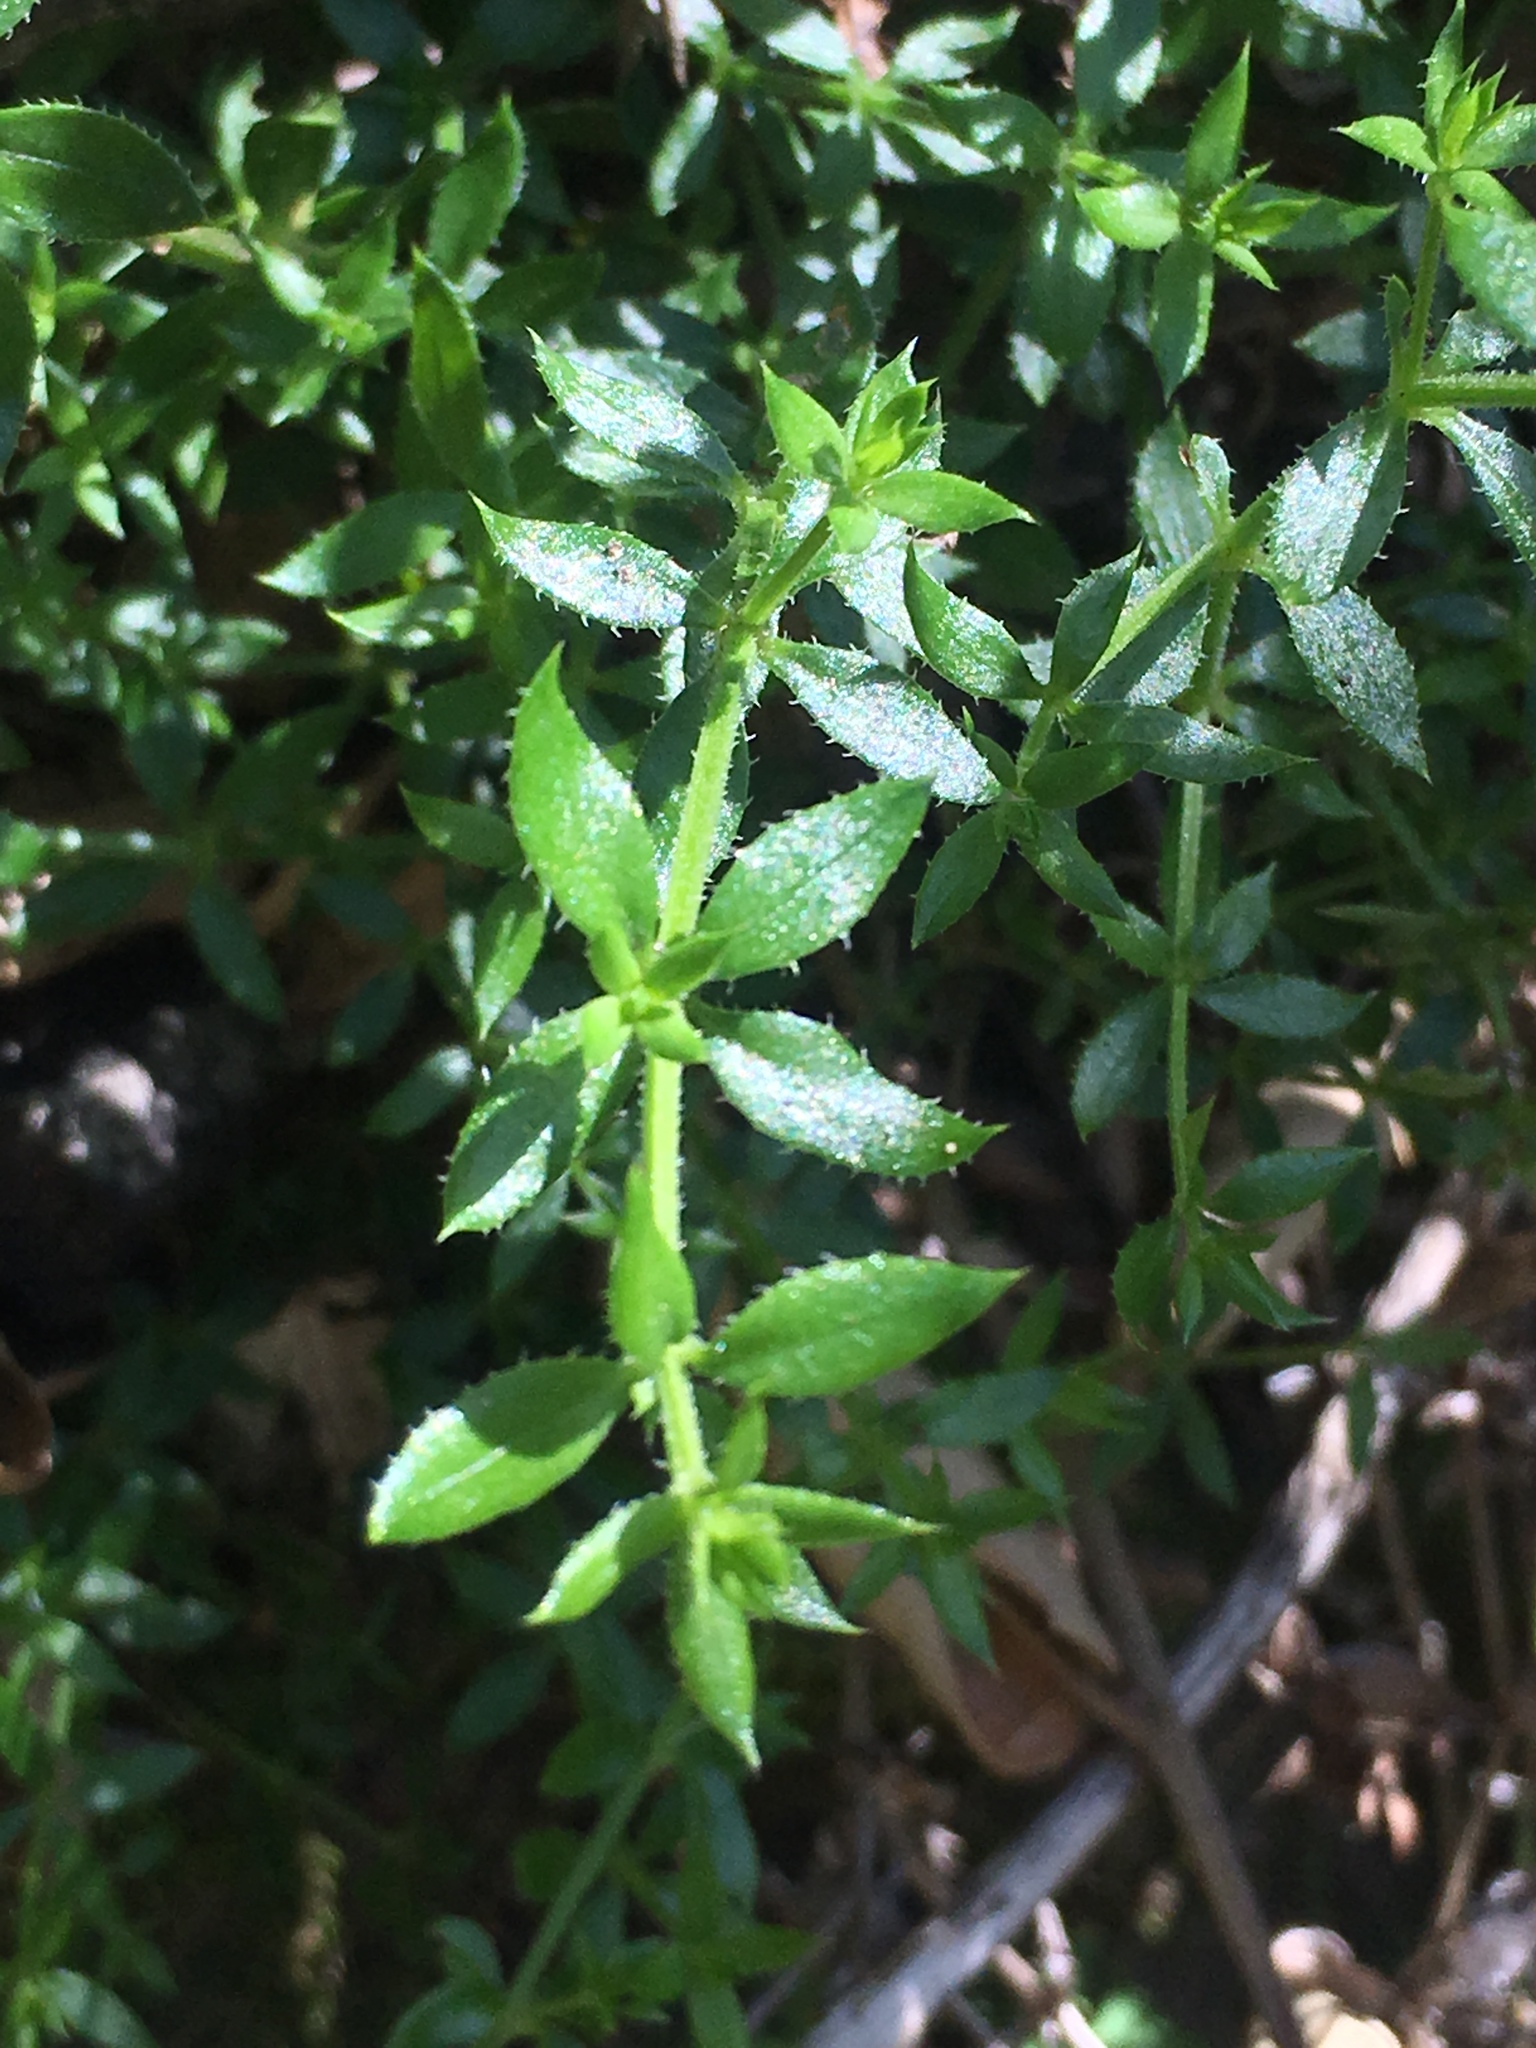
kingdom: Plantae
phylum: Tracheophyta
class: Magnoliopsida
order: Gentianales
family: Rubiaceae
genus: Galium
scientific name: Galium cliftonsmithii
